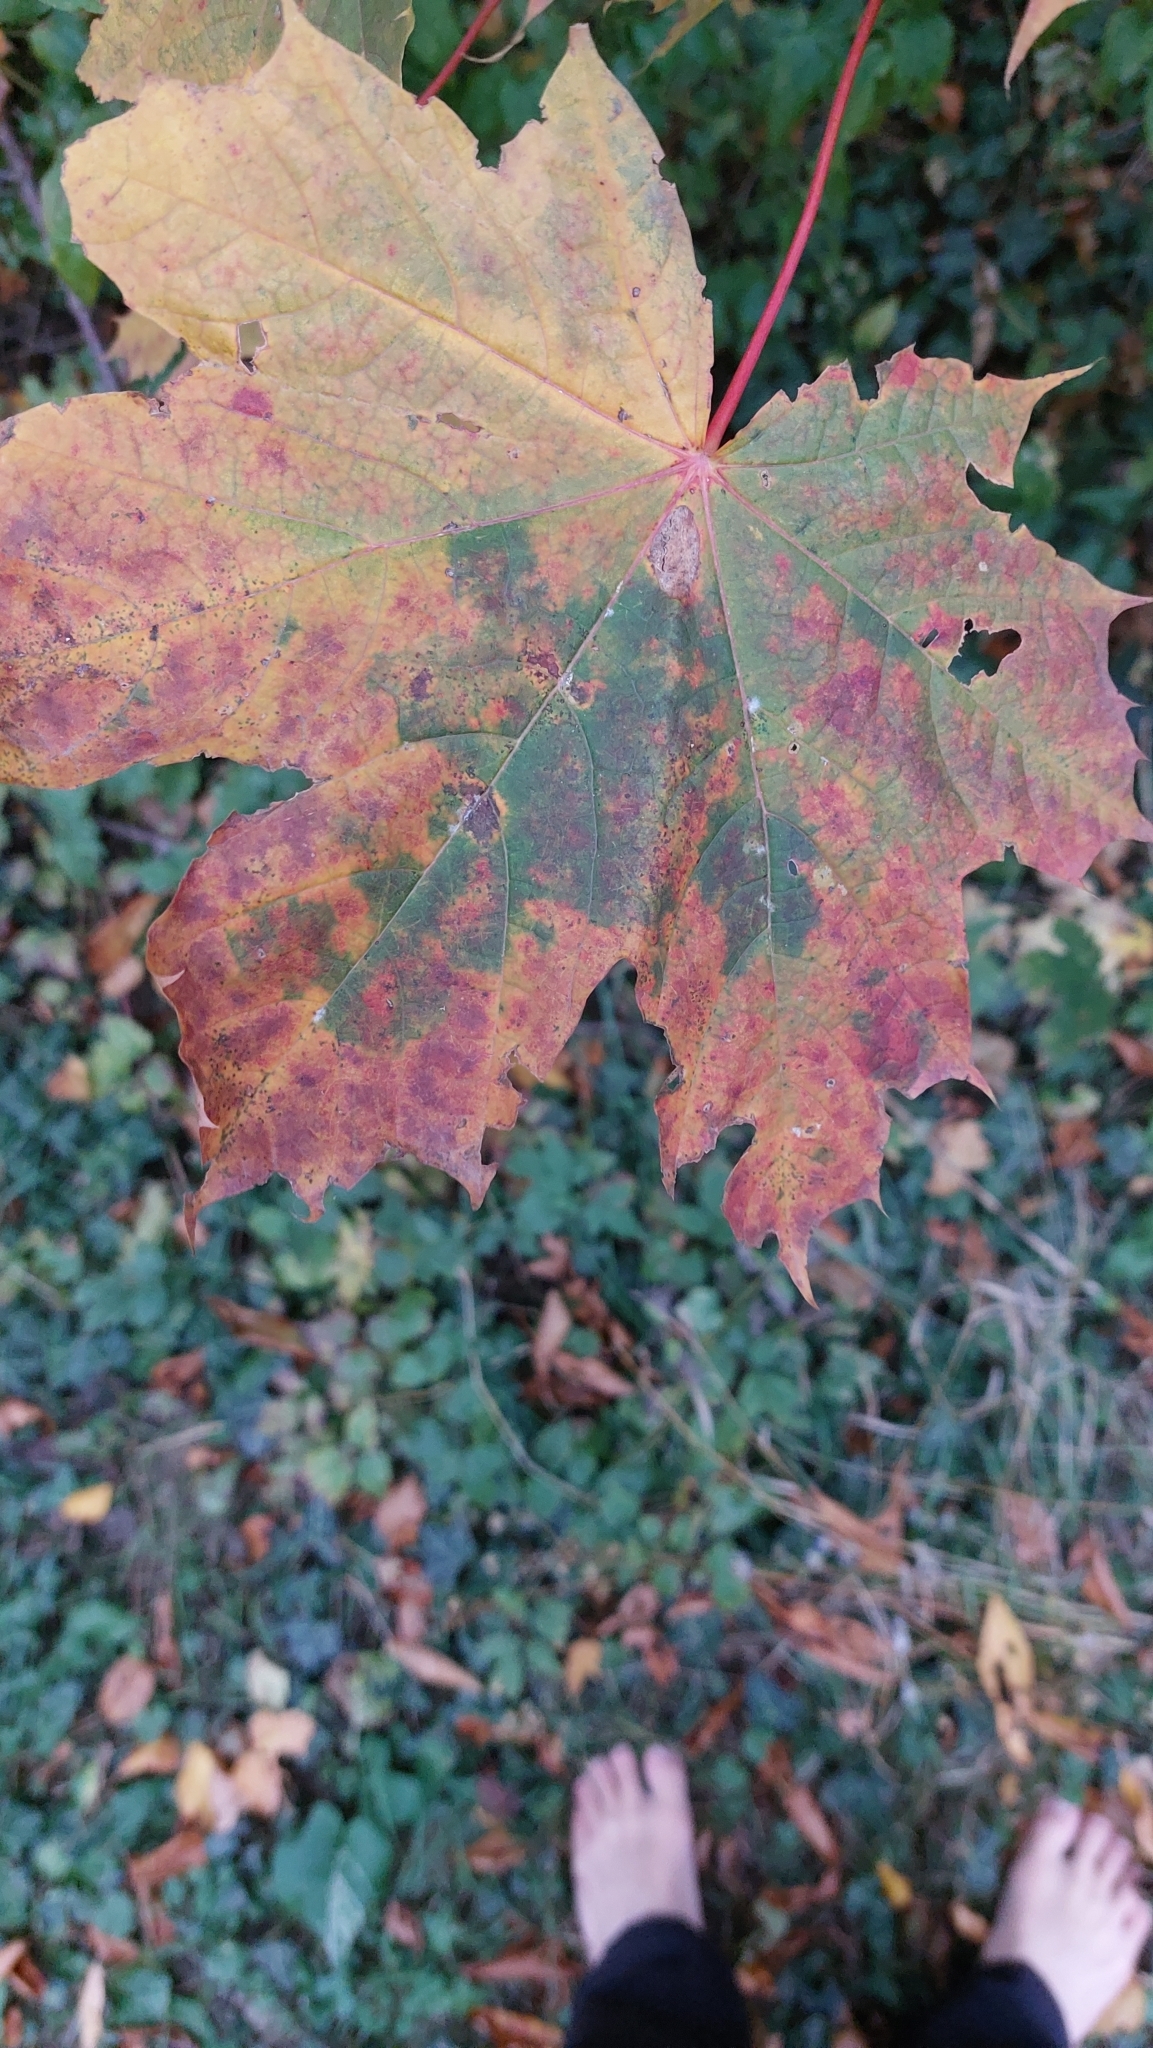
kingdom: Plantae
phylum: Tracheophyta
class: Magnoliopsida
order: Sapindales
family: Sapindaceae
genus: Acer
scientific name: Acer platanoides
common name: Norway maple
